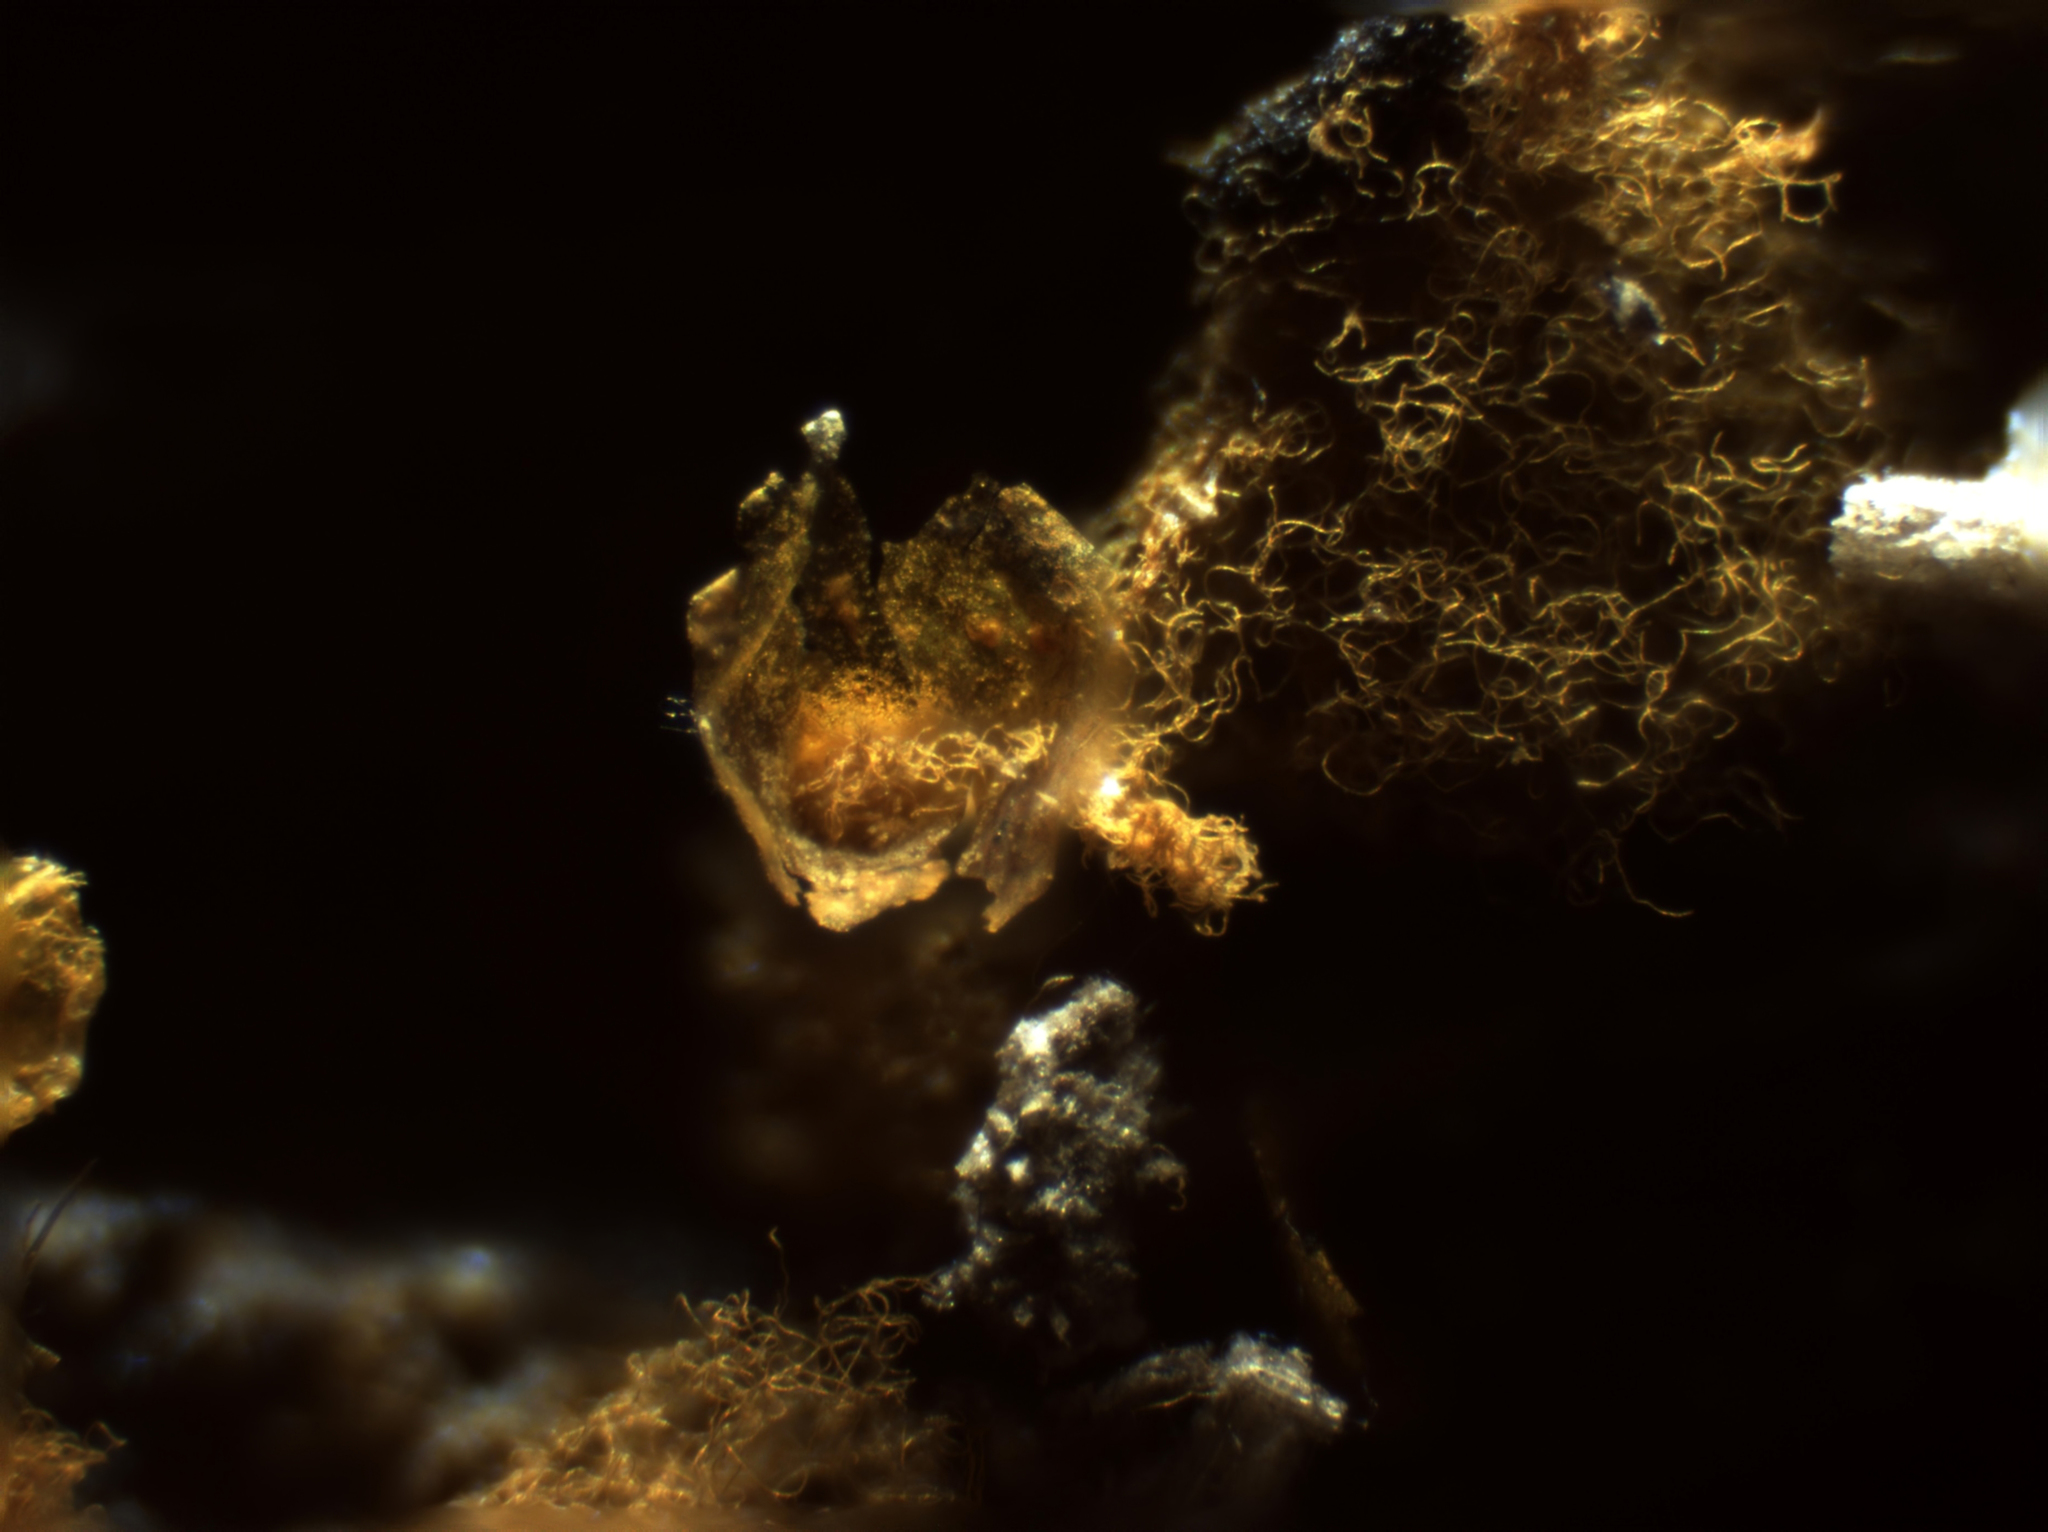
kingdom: Protozoa
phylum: Mycetozoa
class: Myxomycetes
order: Trichiales
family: Arcyriaceae
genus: Hemitrichia
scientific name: Hemitrichia calyculata
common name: Push pin slime mold
